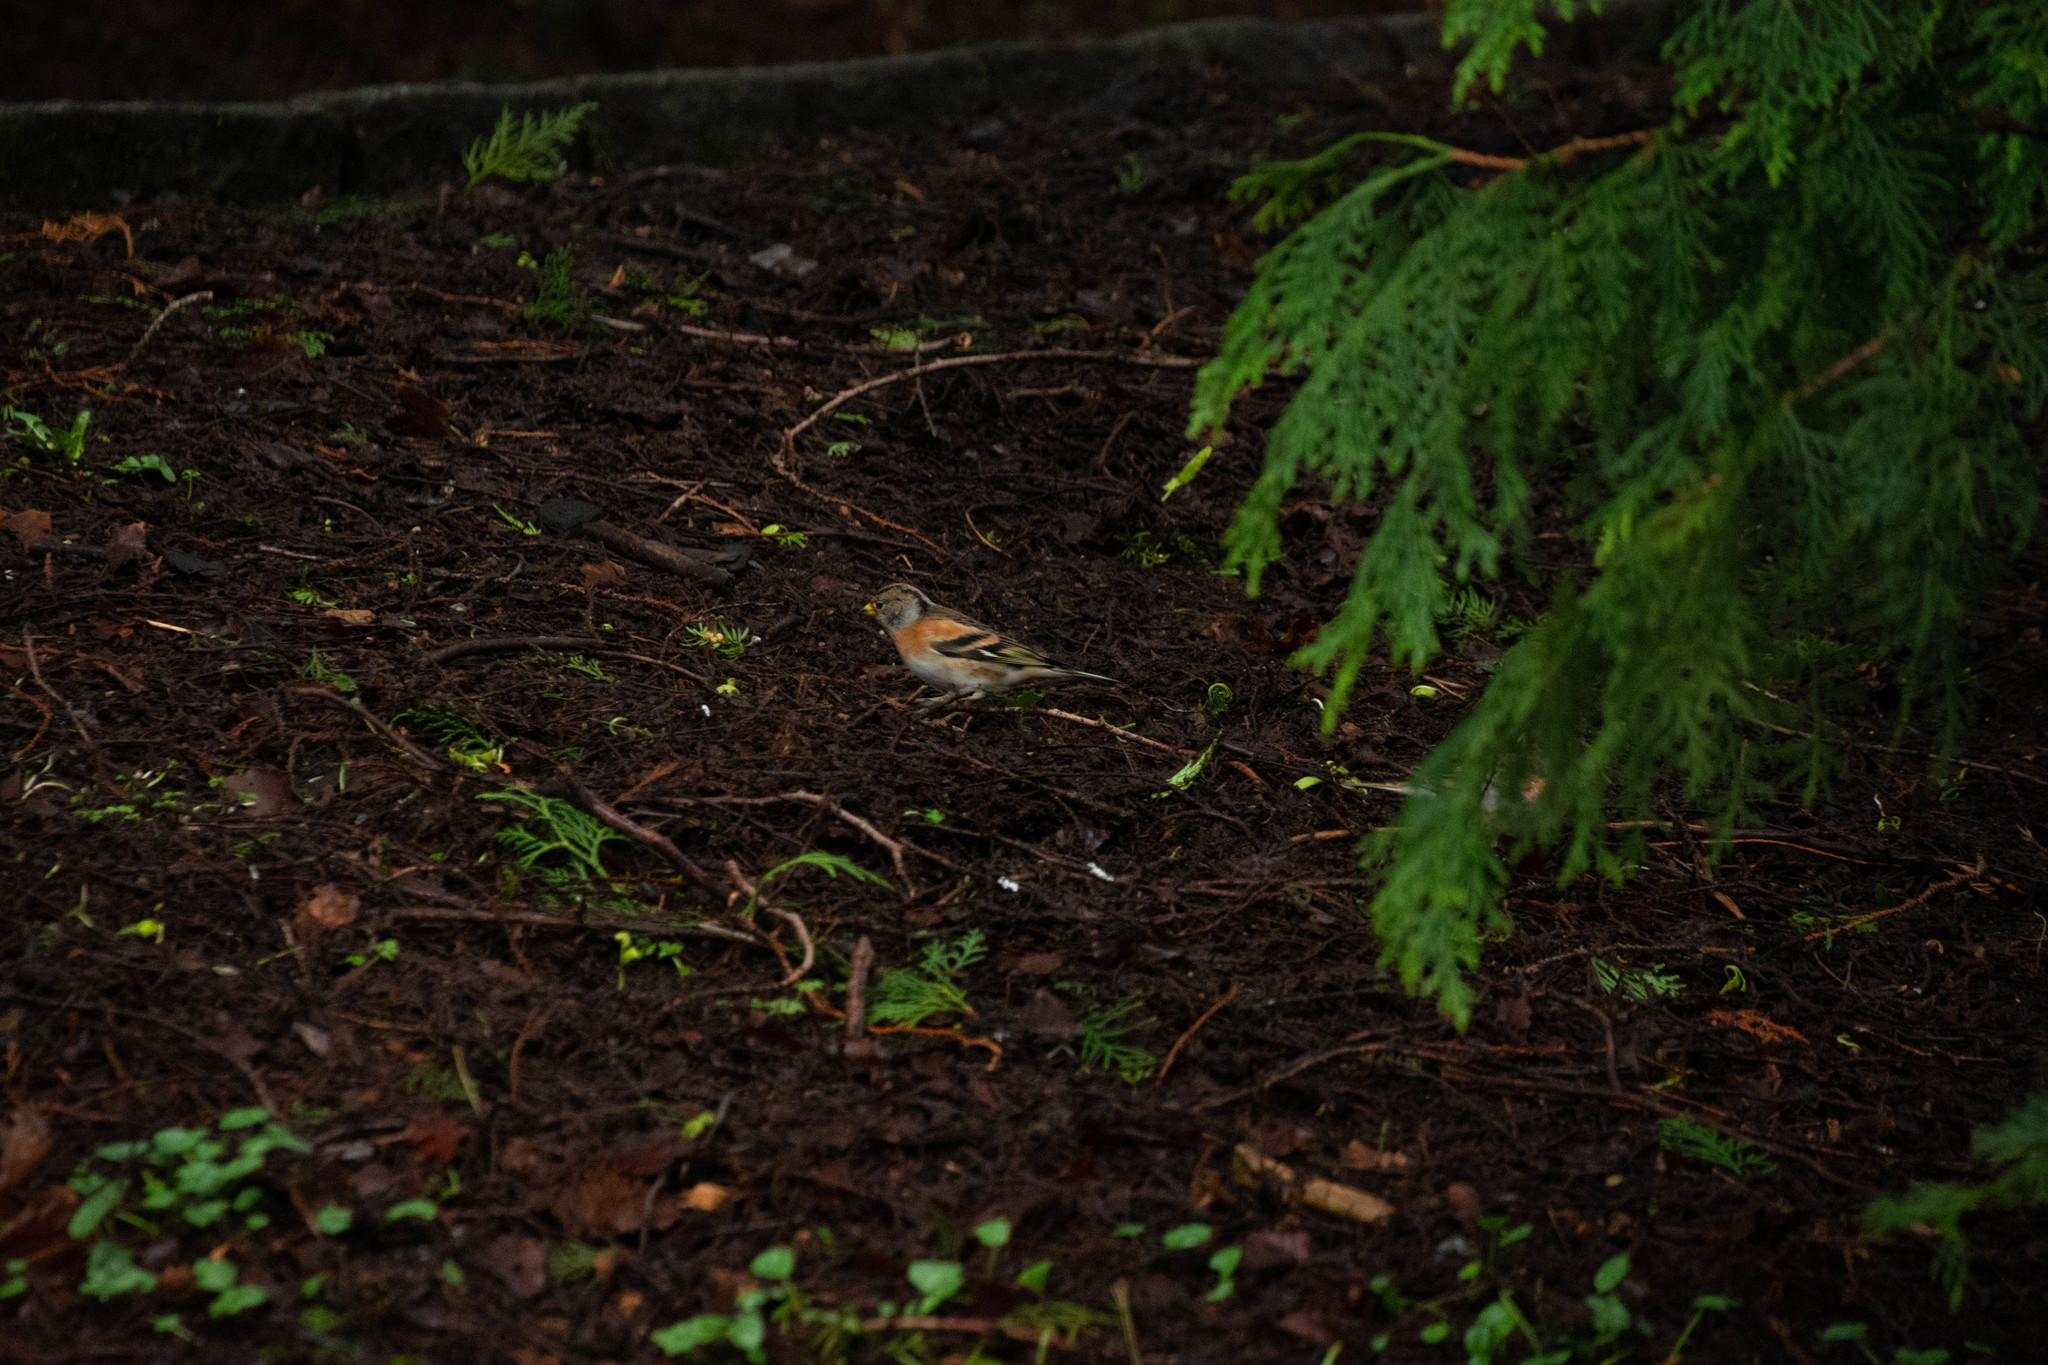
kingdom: Animalia
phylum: Chordata
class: Aves
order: Passeriformes
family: Fringillidae
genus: Fringilla
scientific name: Fringilla montifringilla
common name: Brambling
